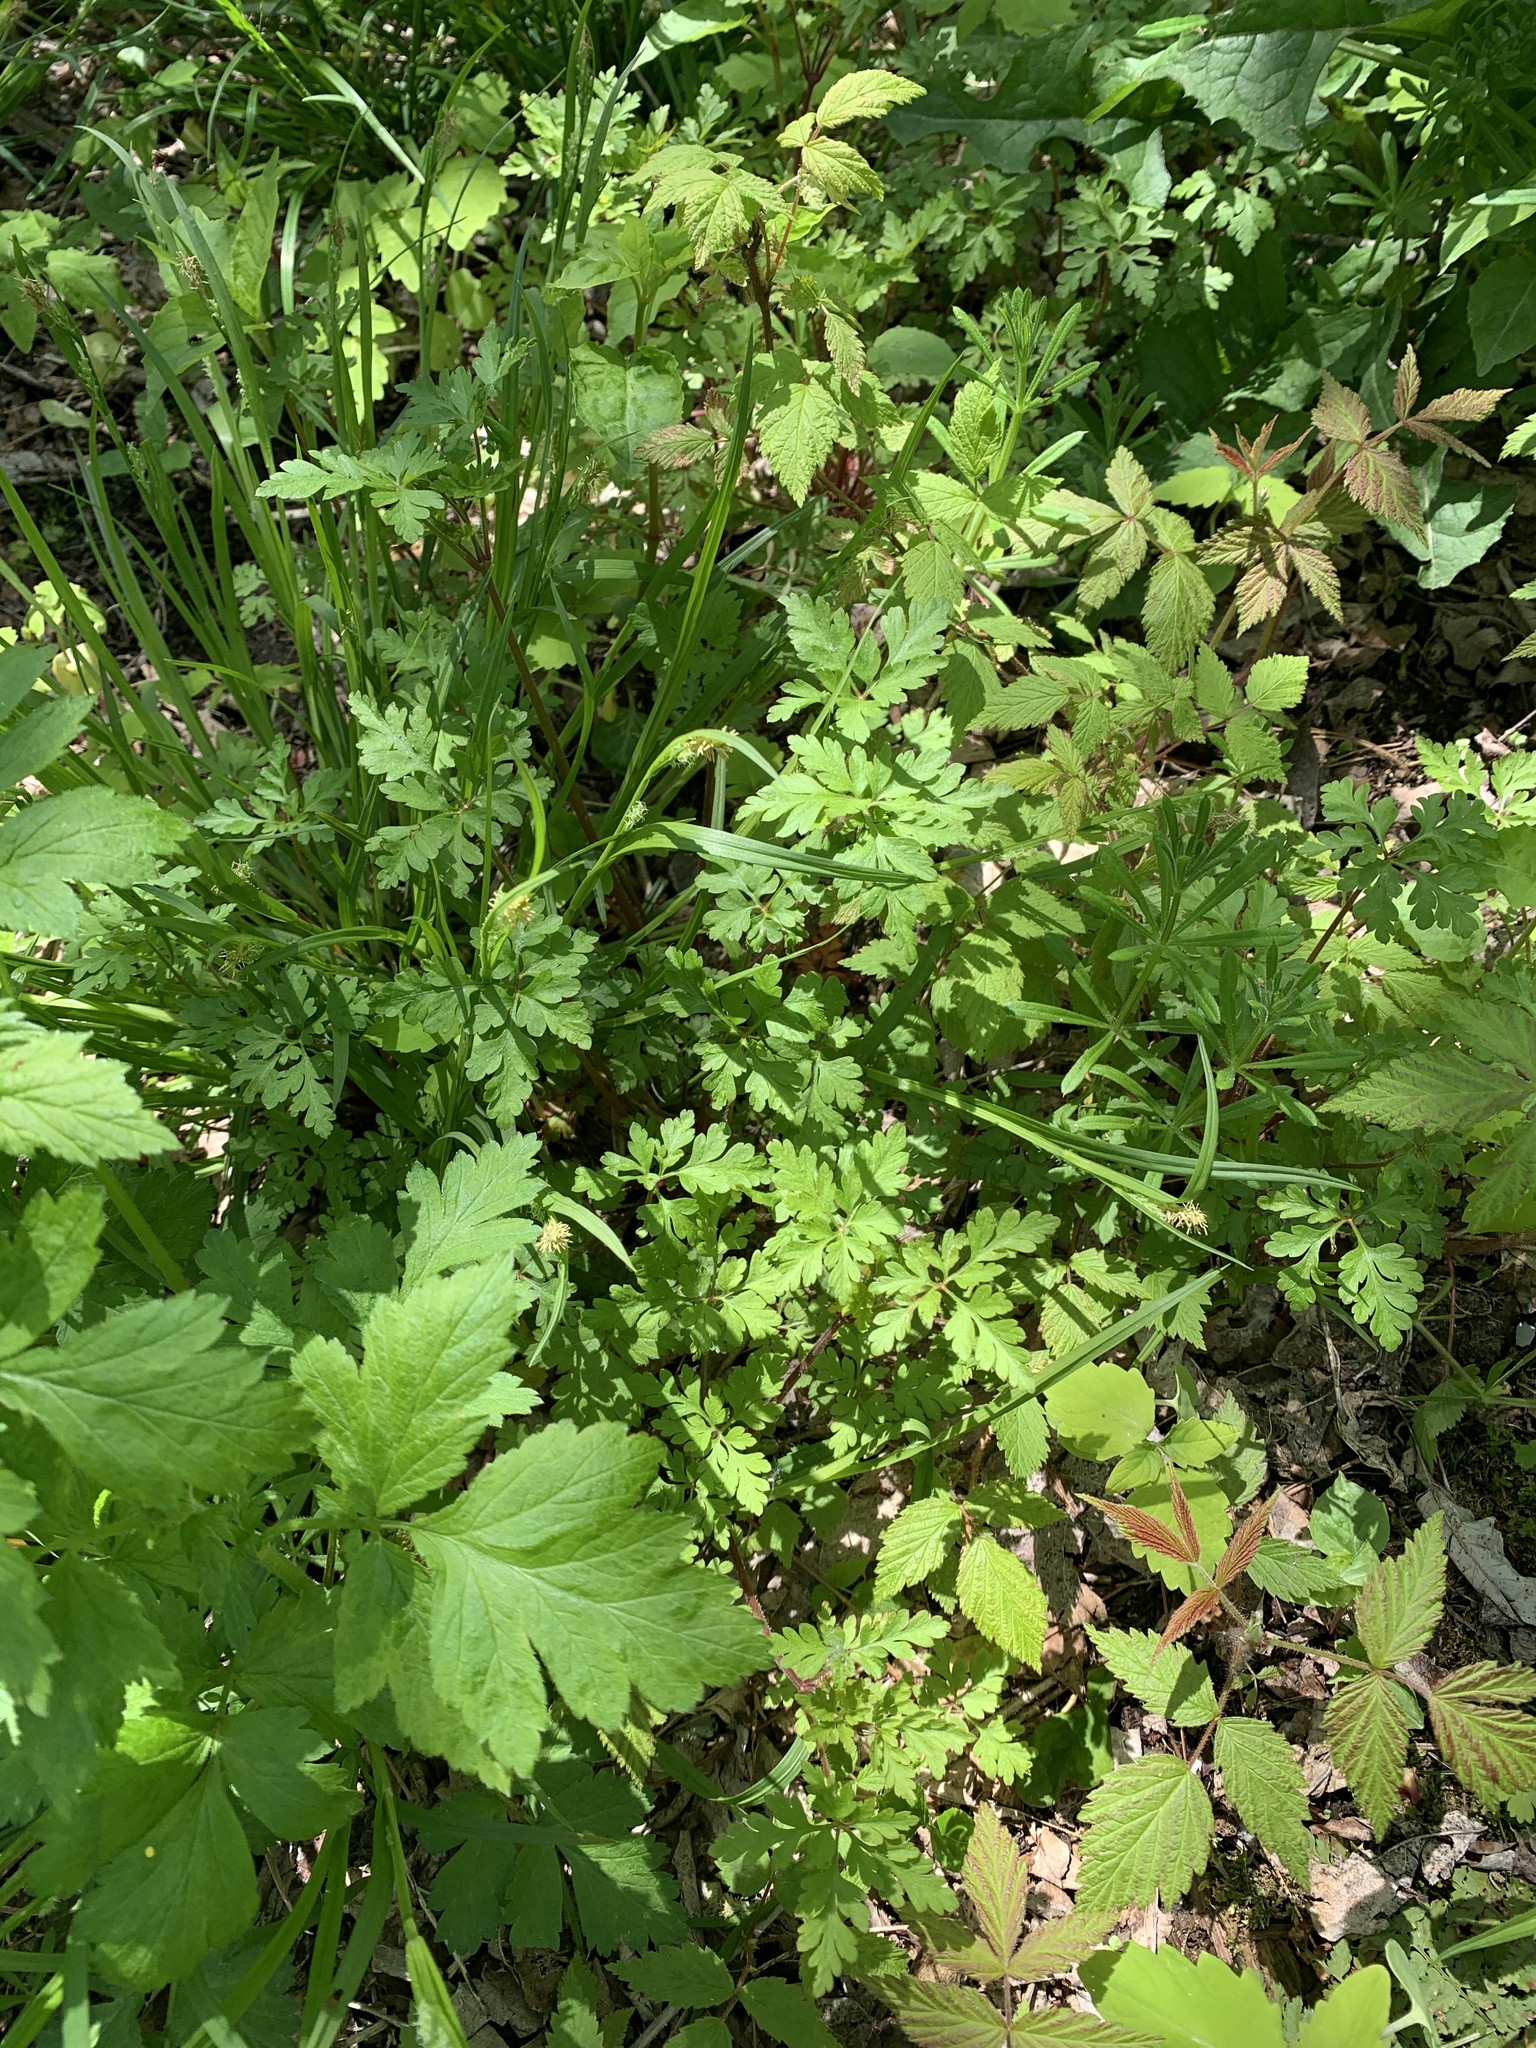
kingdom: Plantae
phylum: Tracheophyta
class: Magnoliopsida
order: Geraniales
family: Geraniaceae
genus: Geranium
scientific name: Geranium robertianum
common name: Herb-robert
